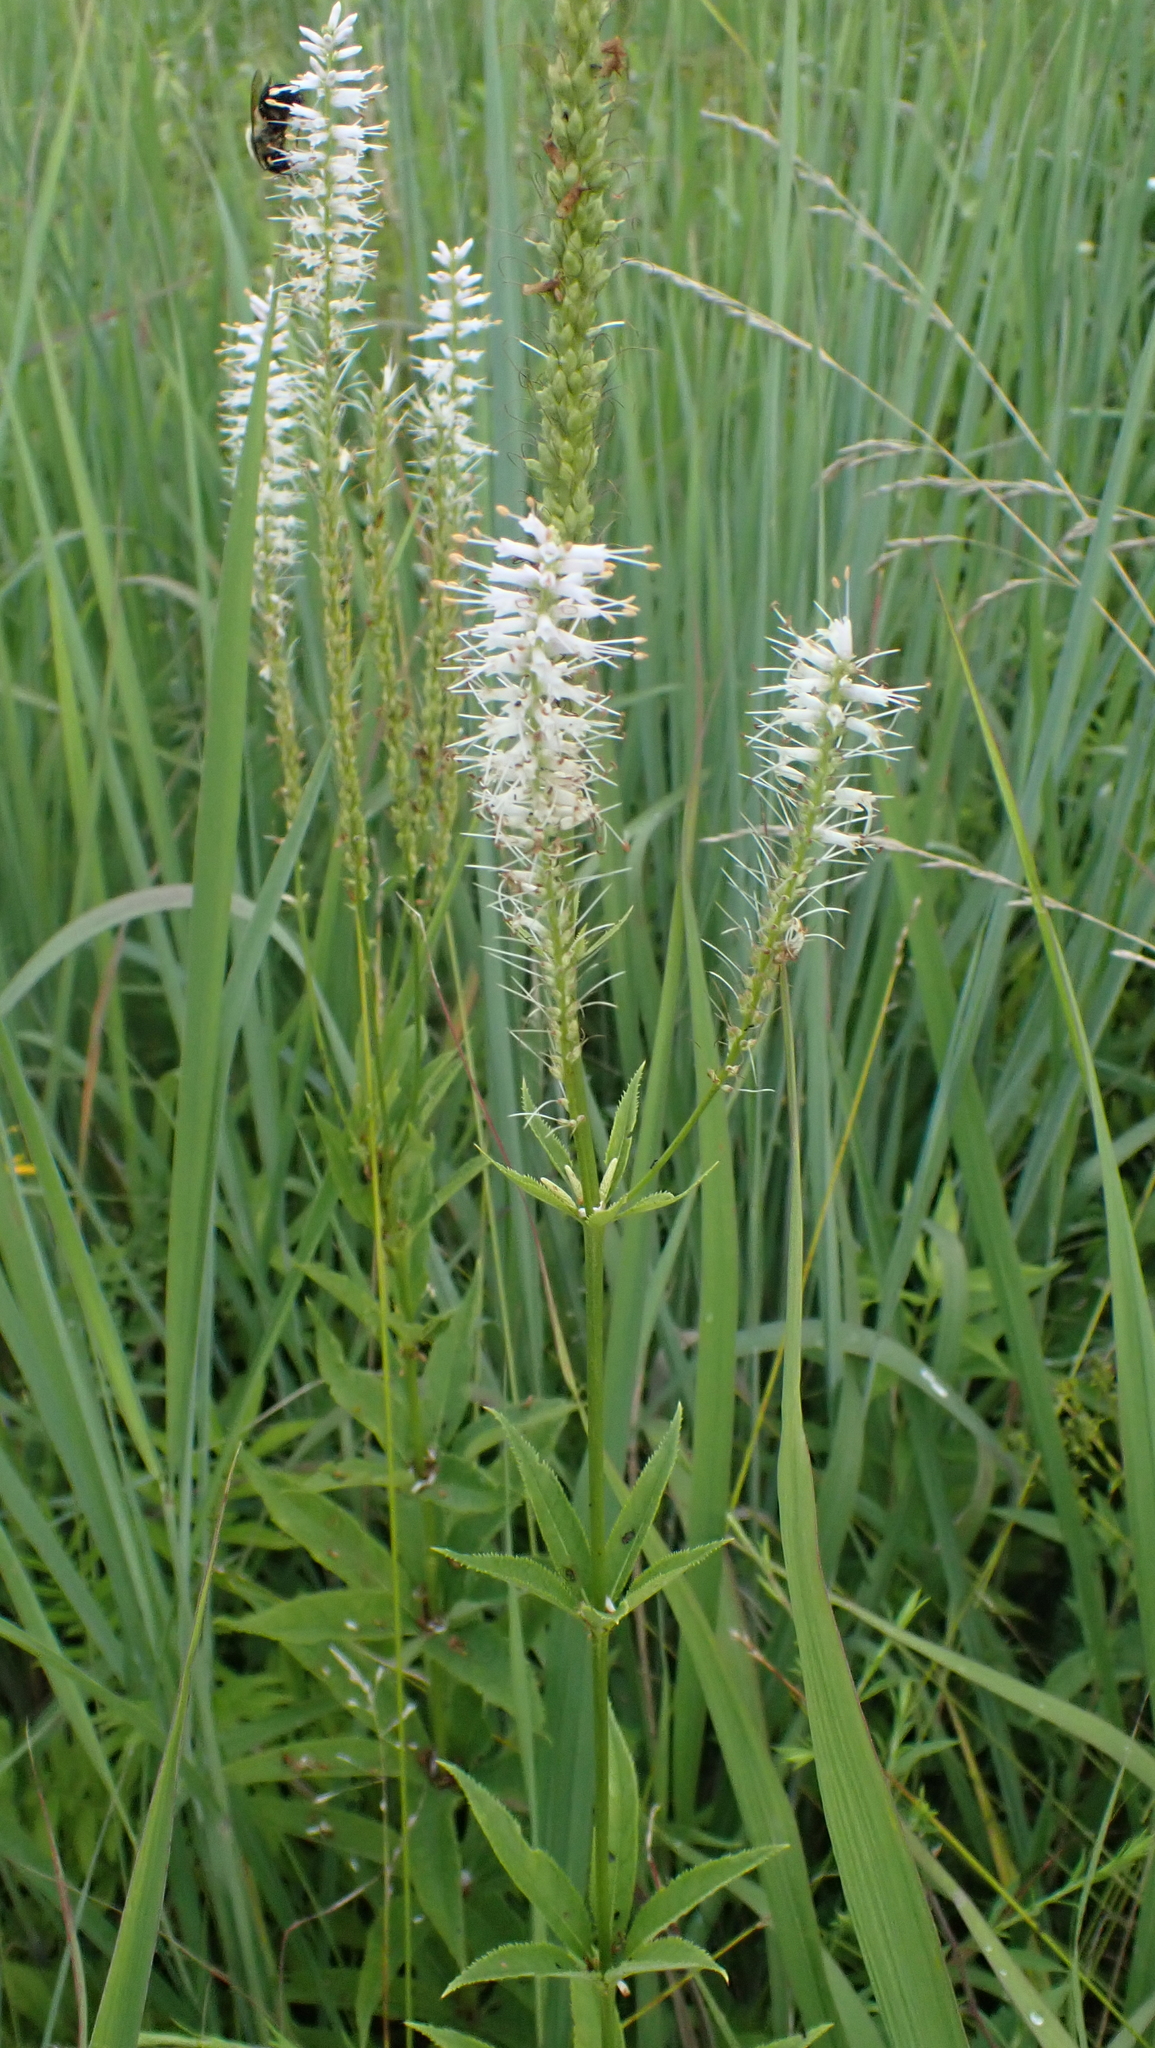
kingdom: Plantae
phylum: Tracheophyta
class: Magnoliopsida
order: Lamiales
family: Plantaginaceae
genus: Veronicastrum
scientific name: Veronicastrum virginicum
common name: Blackroot
